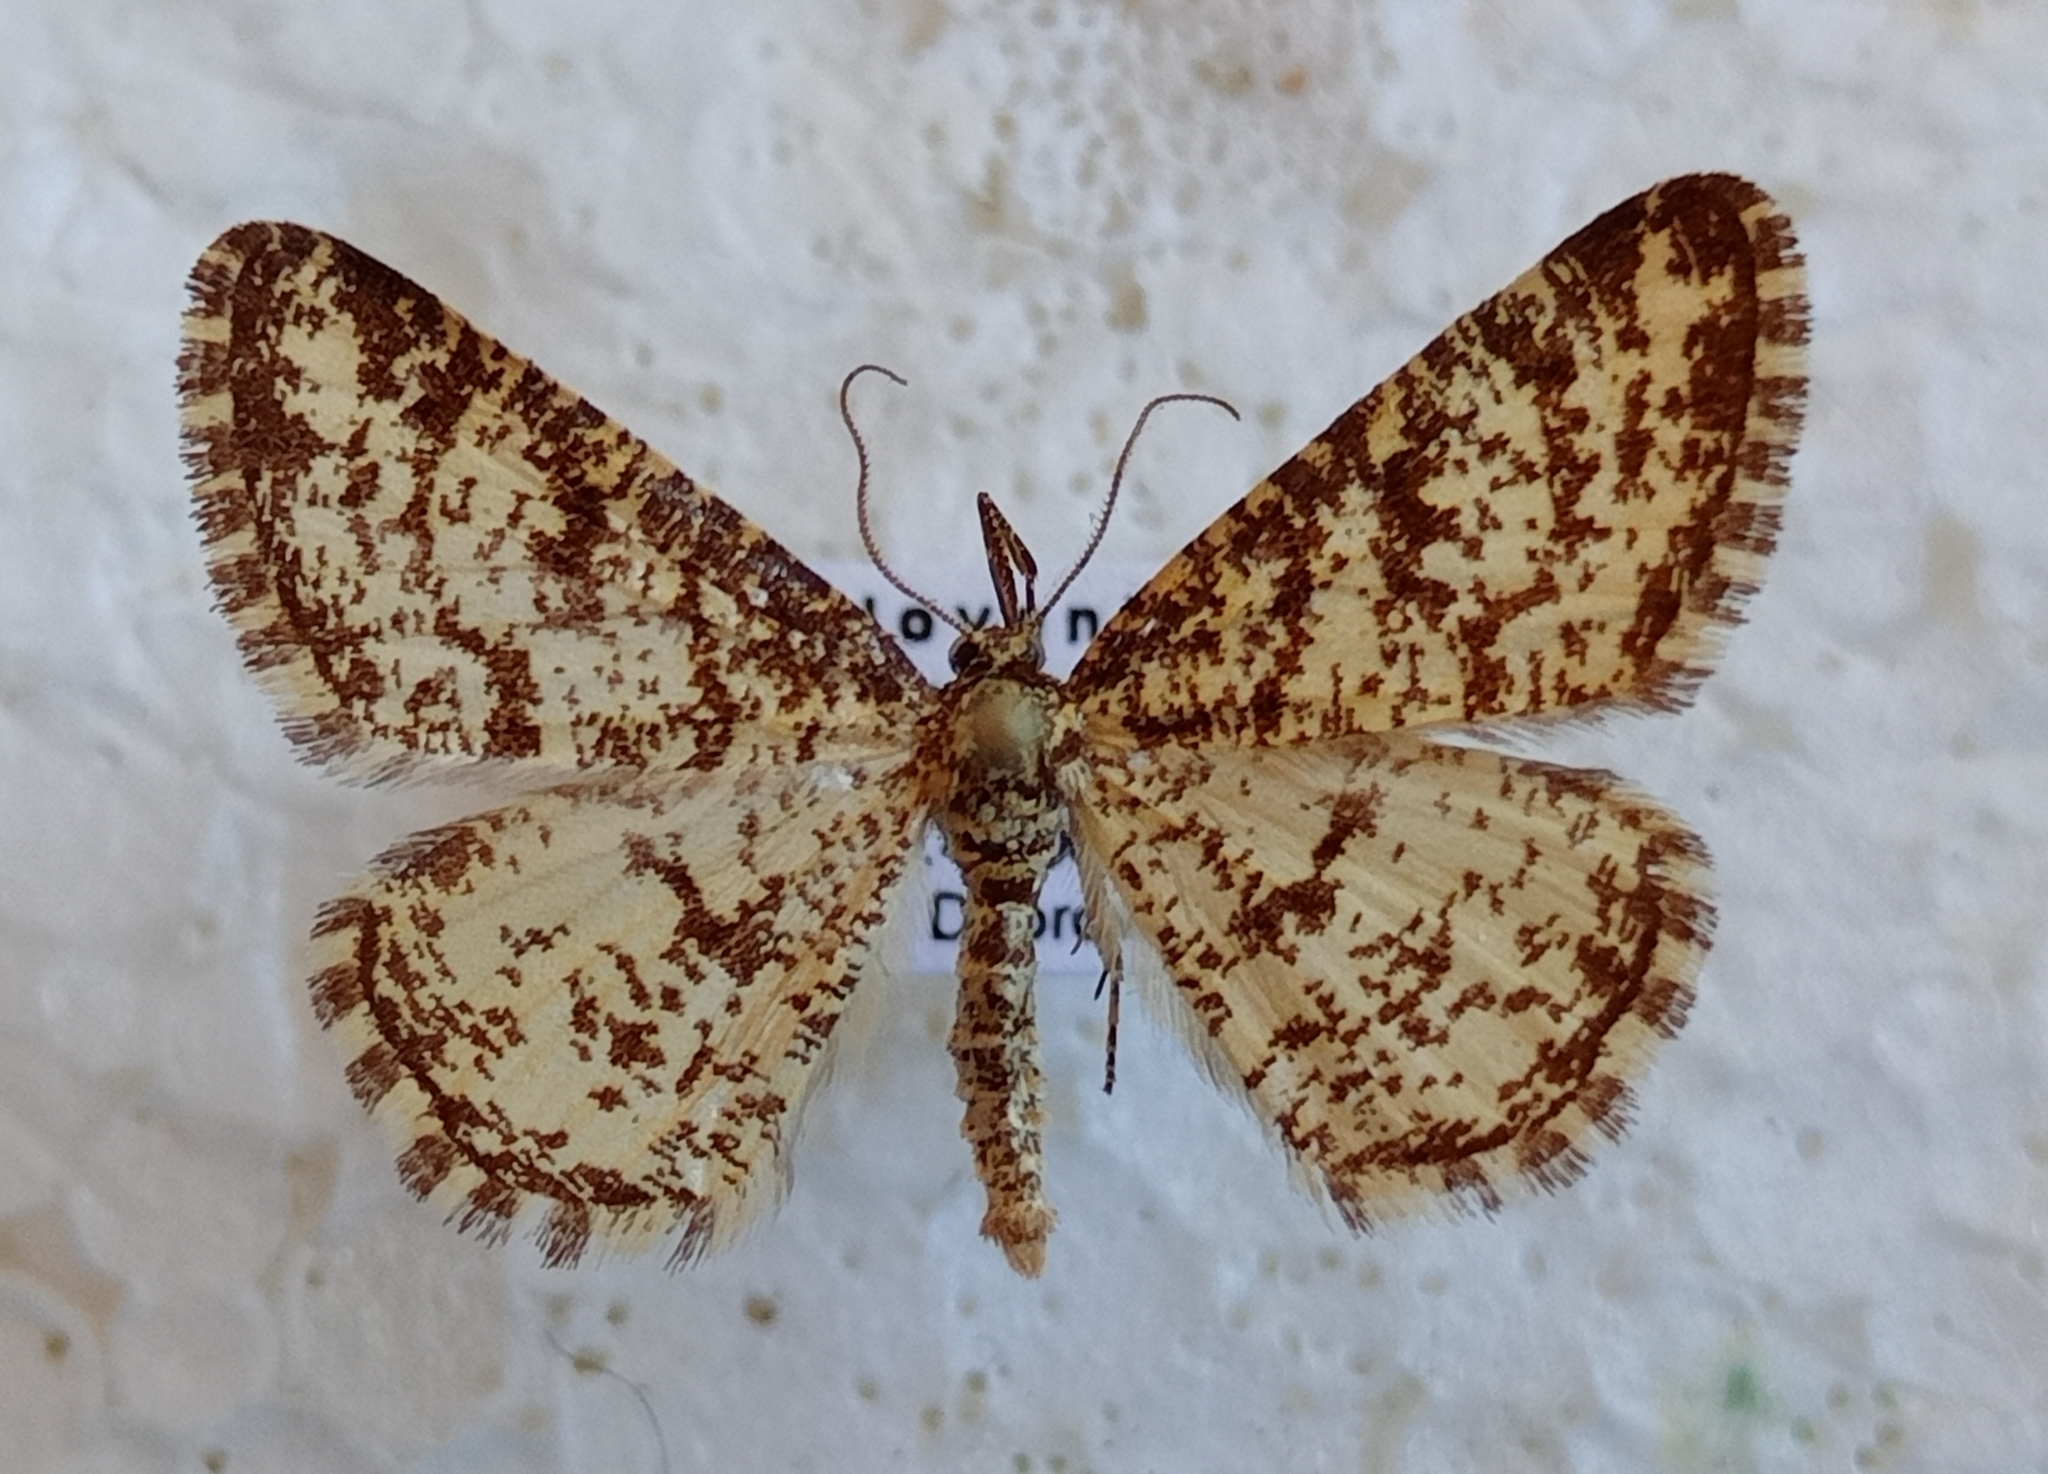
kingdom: Animalia
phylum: Arthropoda
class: Insecta
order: Lepidoptera
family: Geometridae
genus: Heliomata
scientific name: Heliomata glarearia
